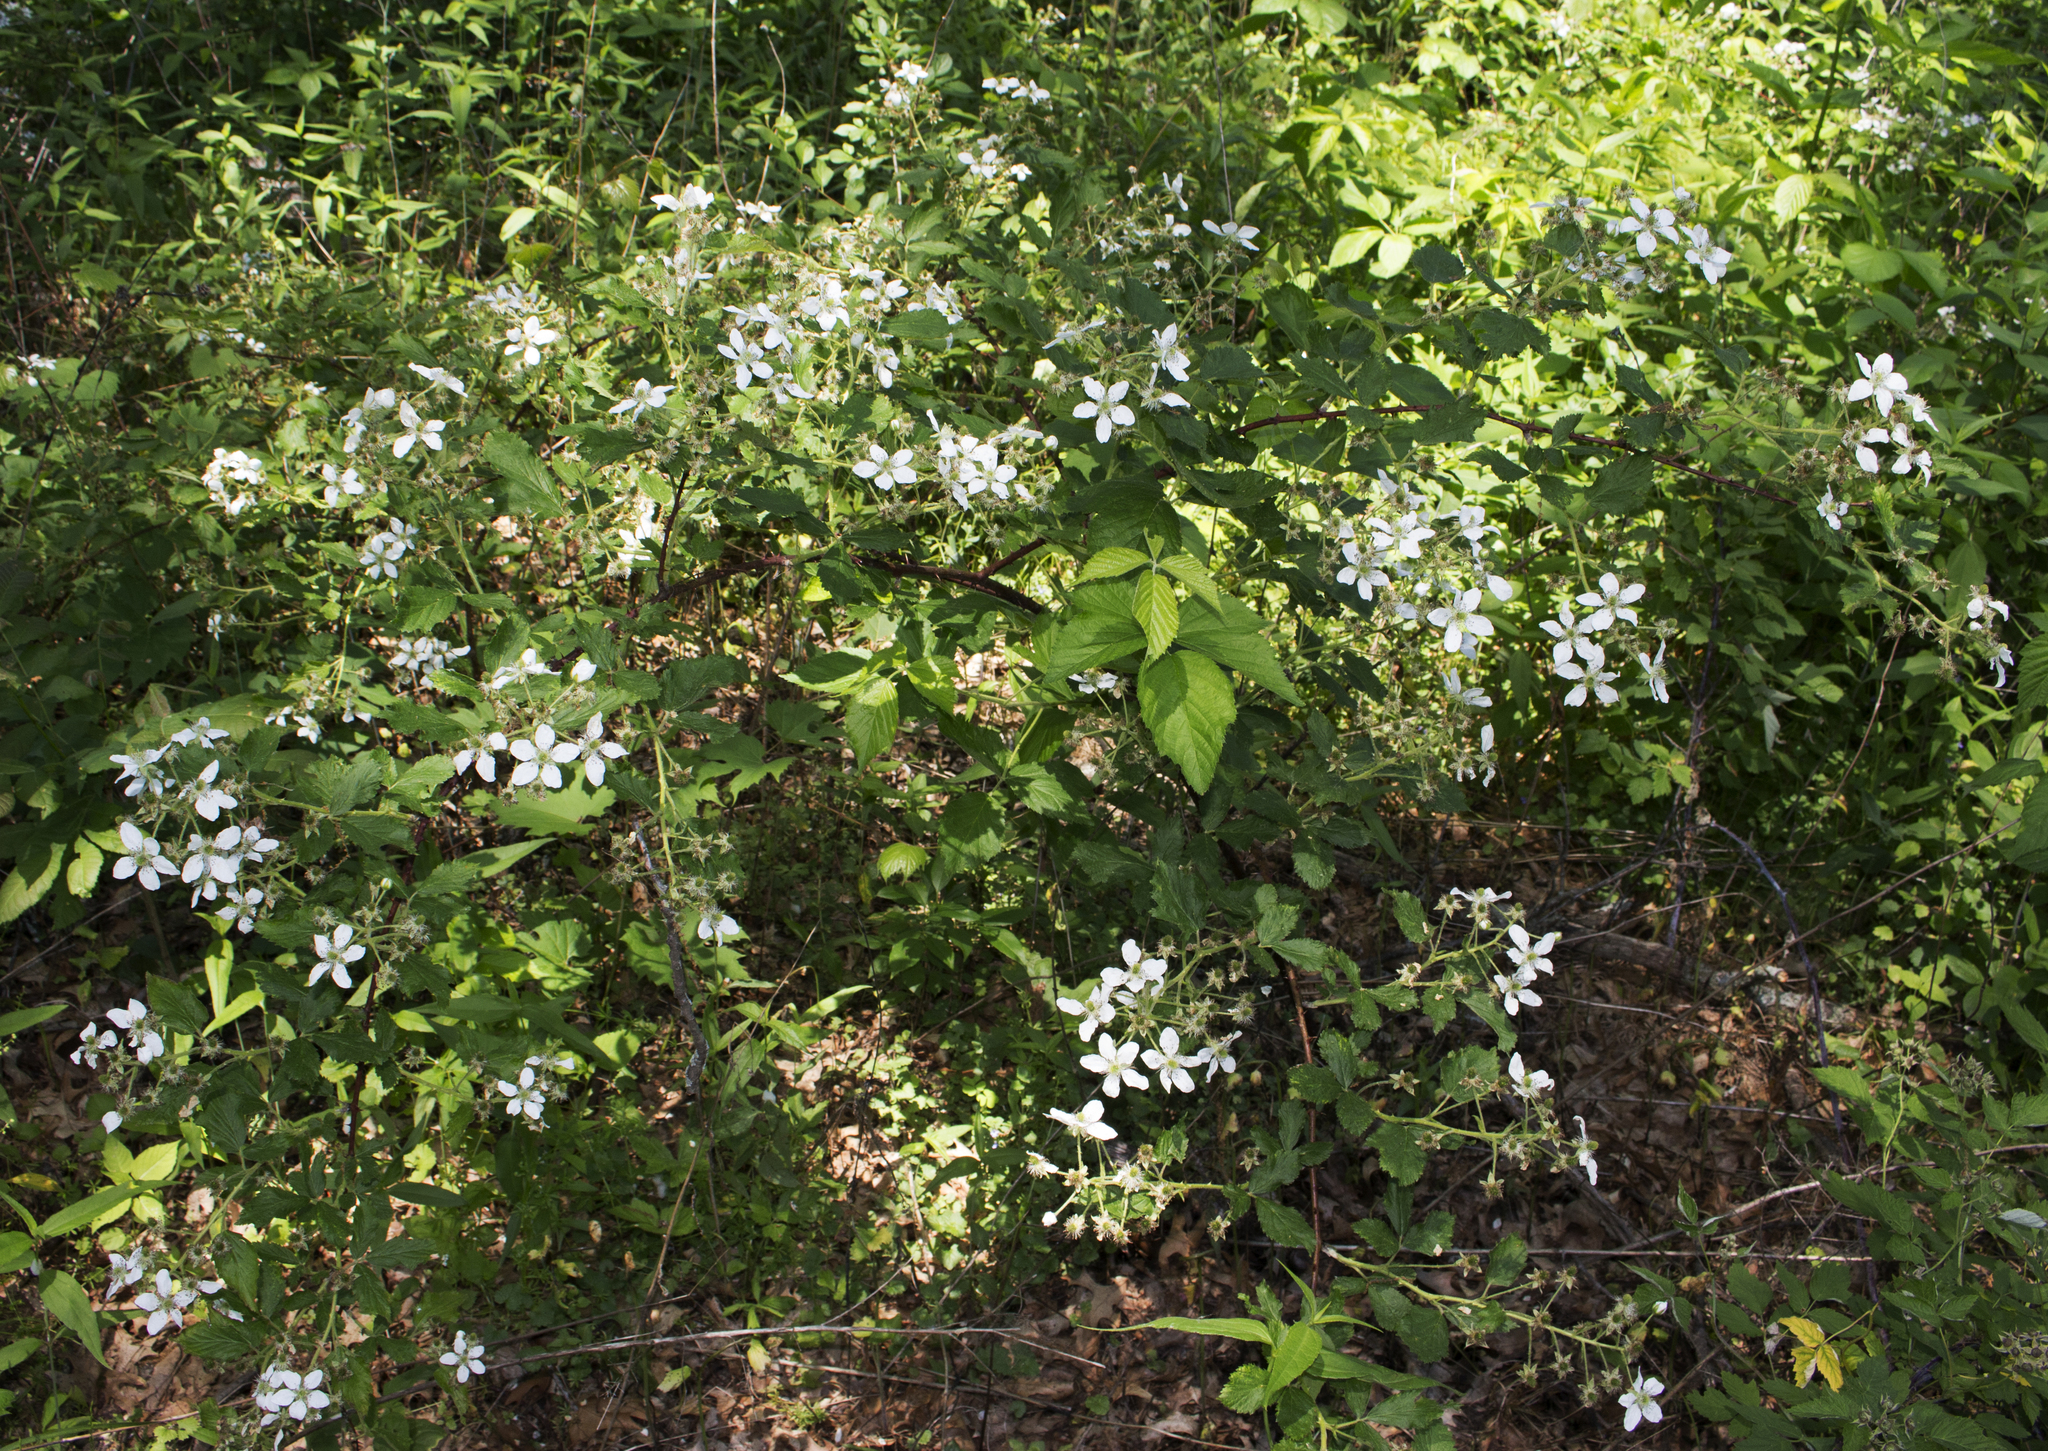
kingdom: Plantae
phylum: Tracheophyta
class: Magnoliopsida
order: Rosales
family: Rosaceae
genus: Rubus
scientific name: Rubus allegheniensis
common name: Allegheny blackberry
